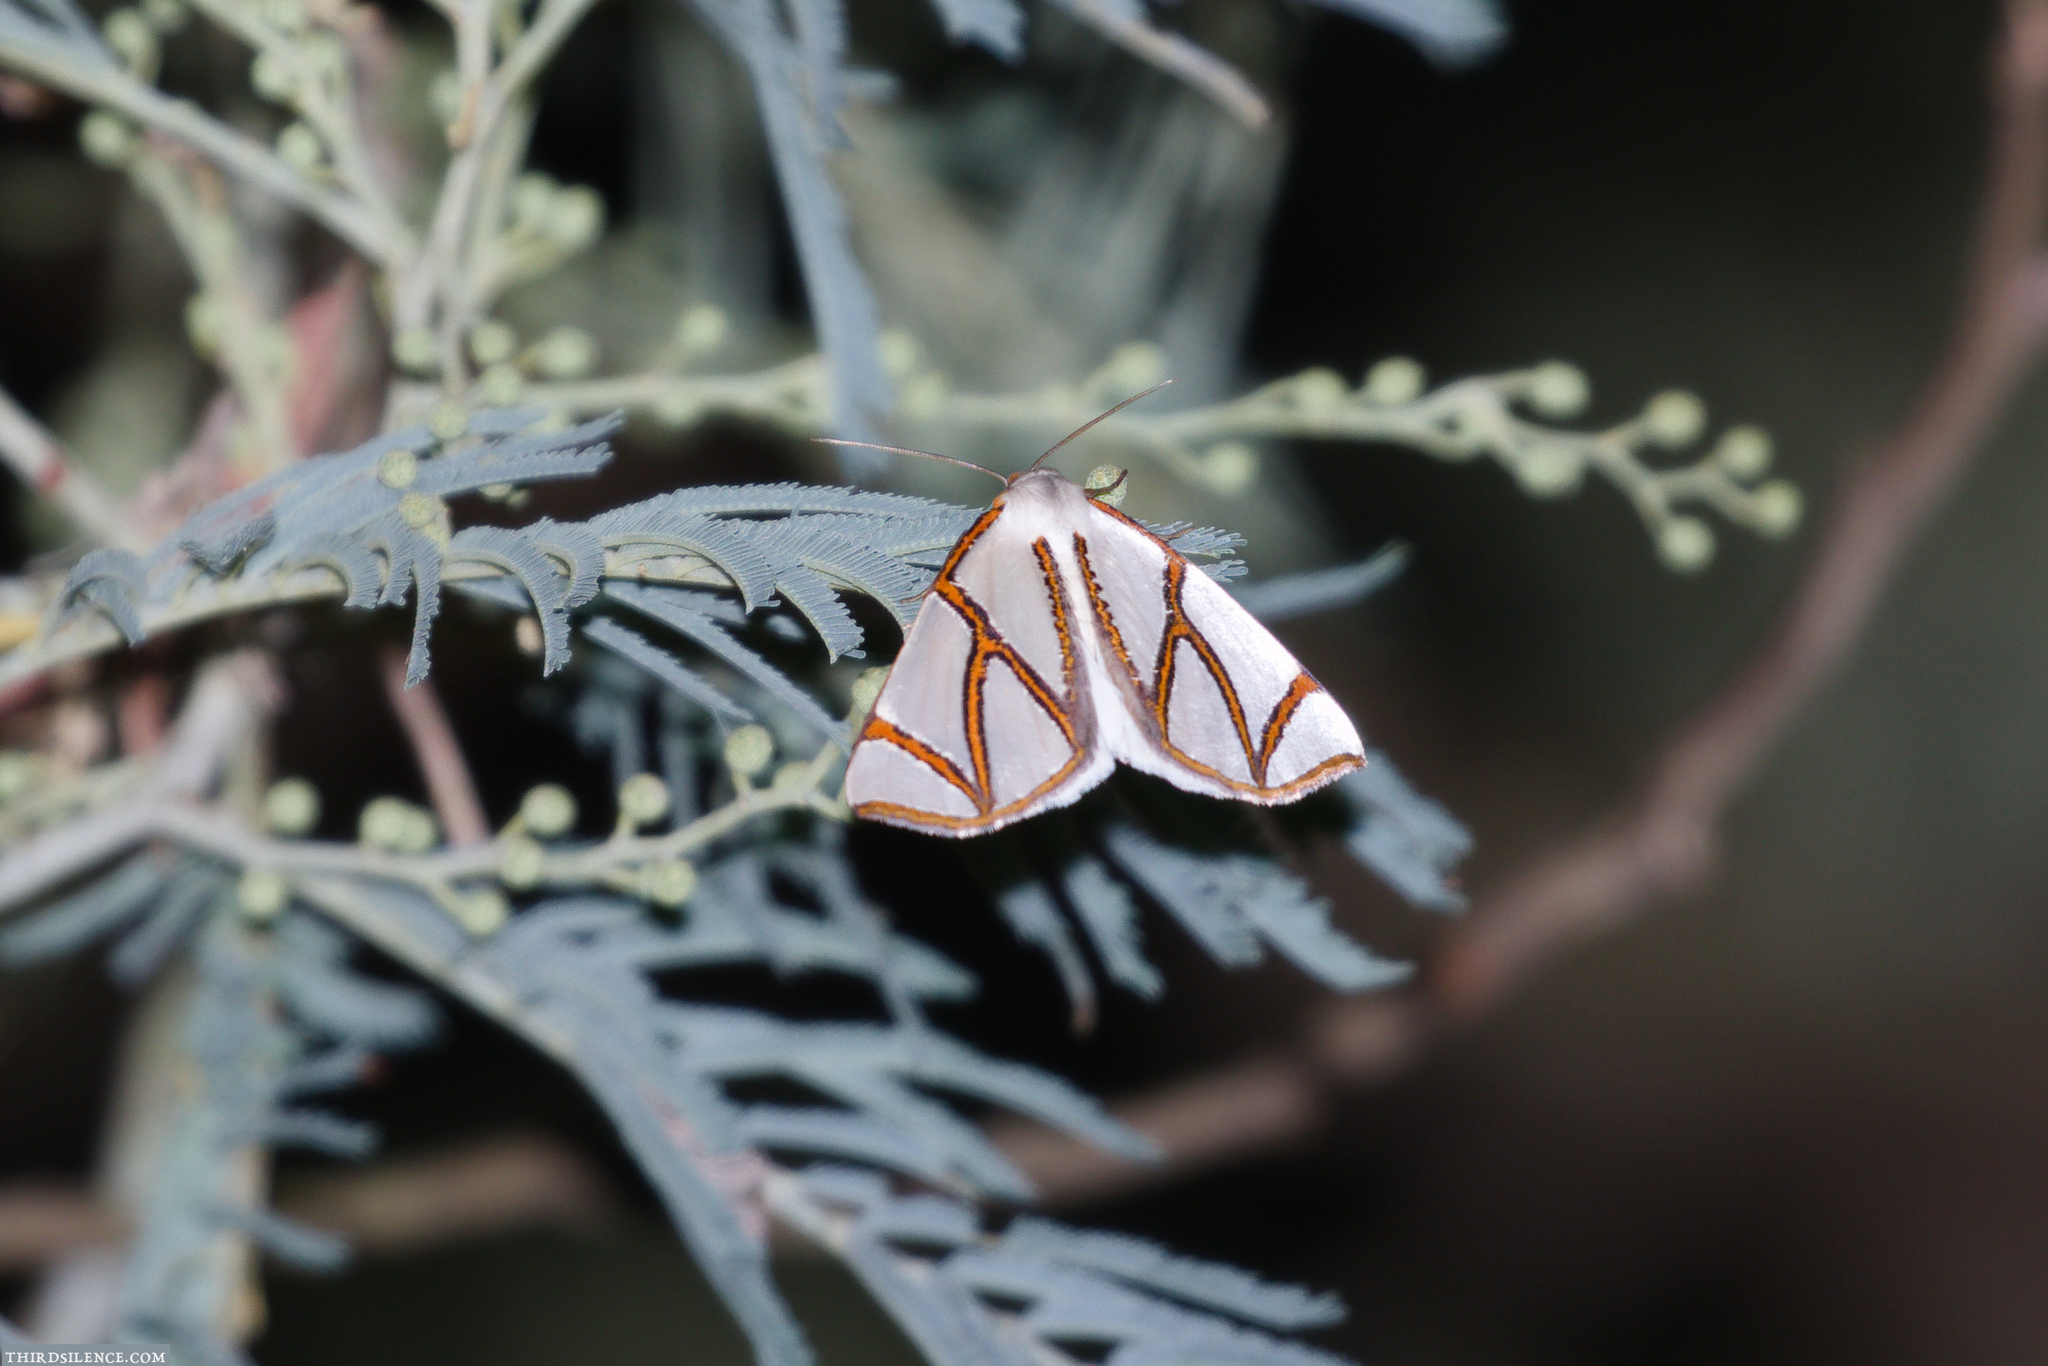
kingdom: Animalia
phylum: Arthropoda
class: Insecta
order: Lepidoptera
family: Geometridae
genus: Thalaina
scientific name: Thalaina clara
